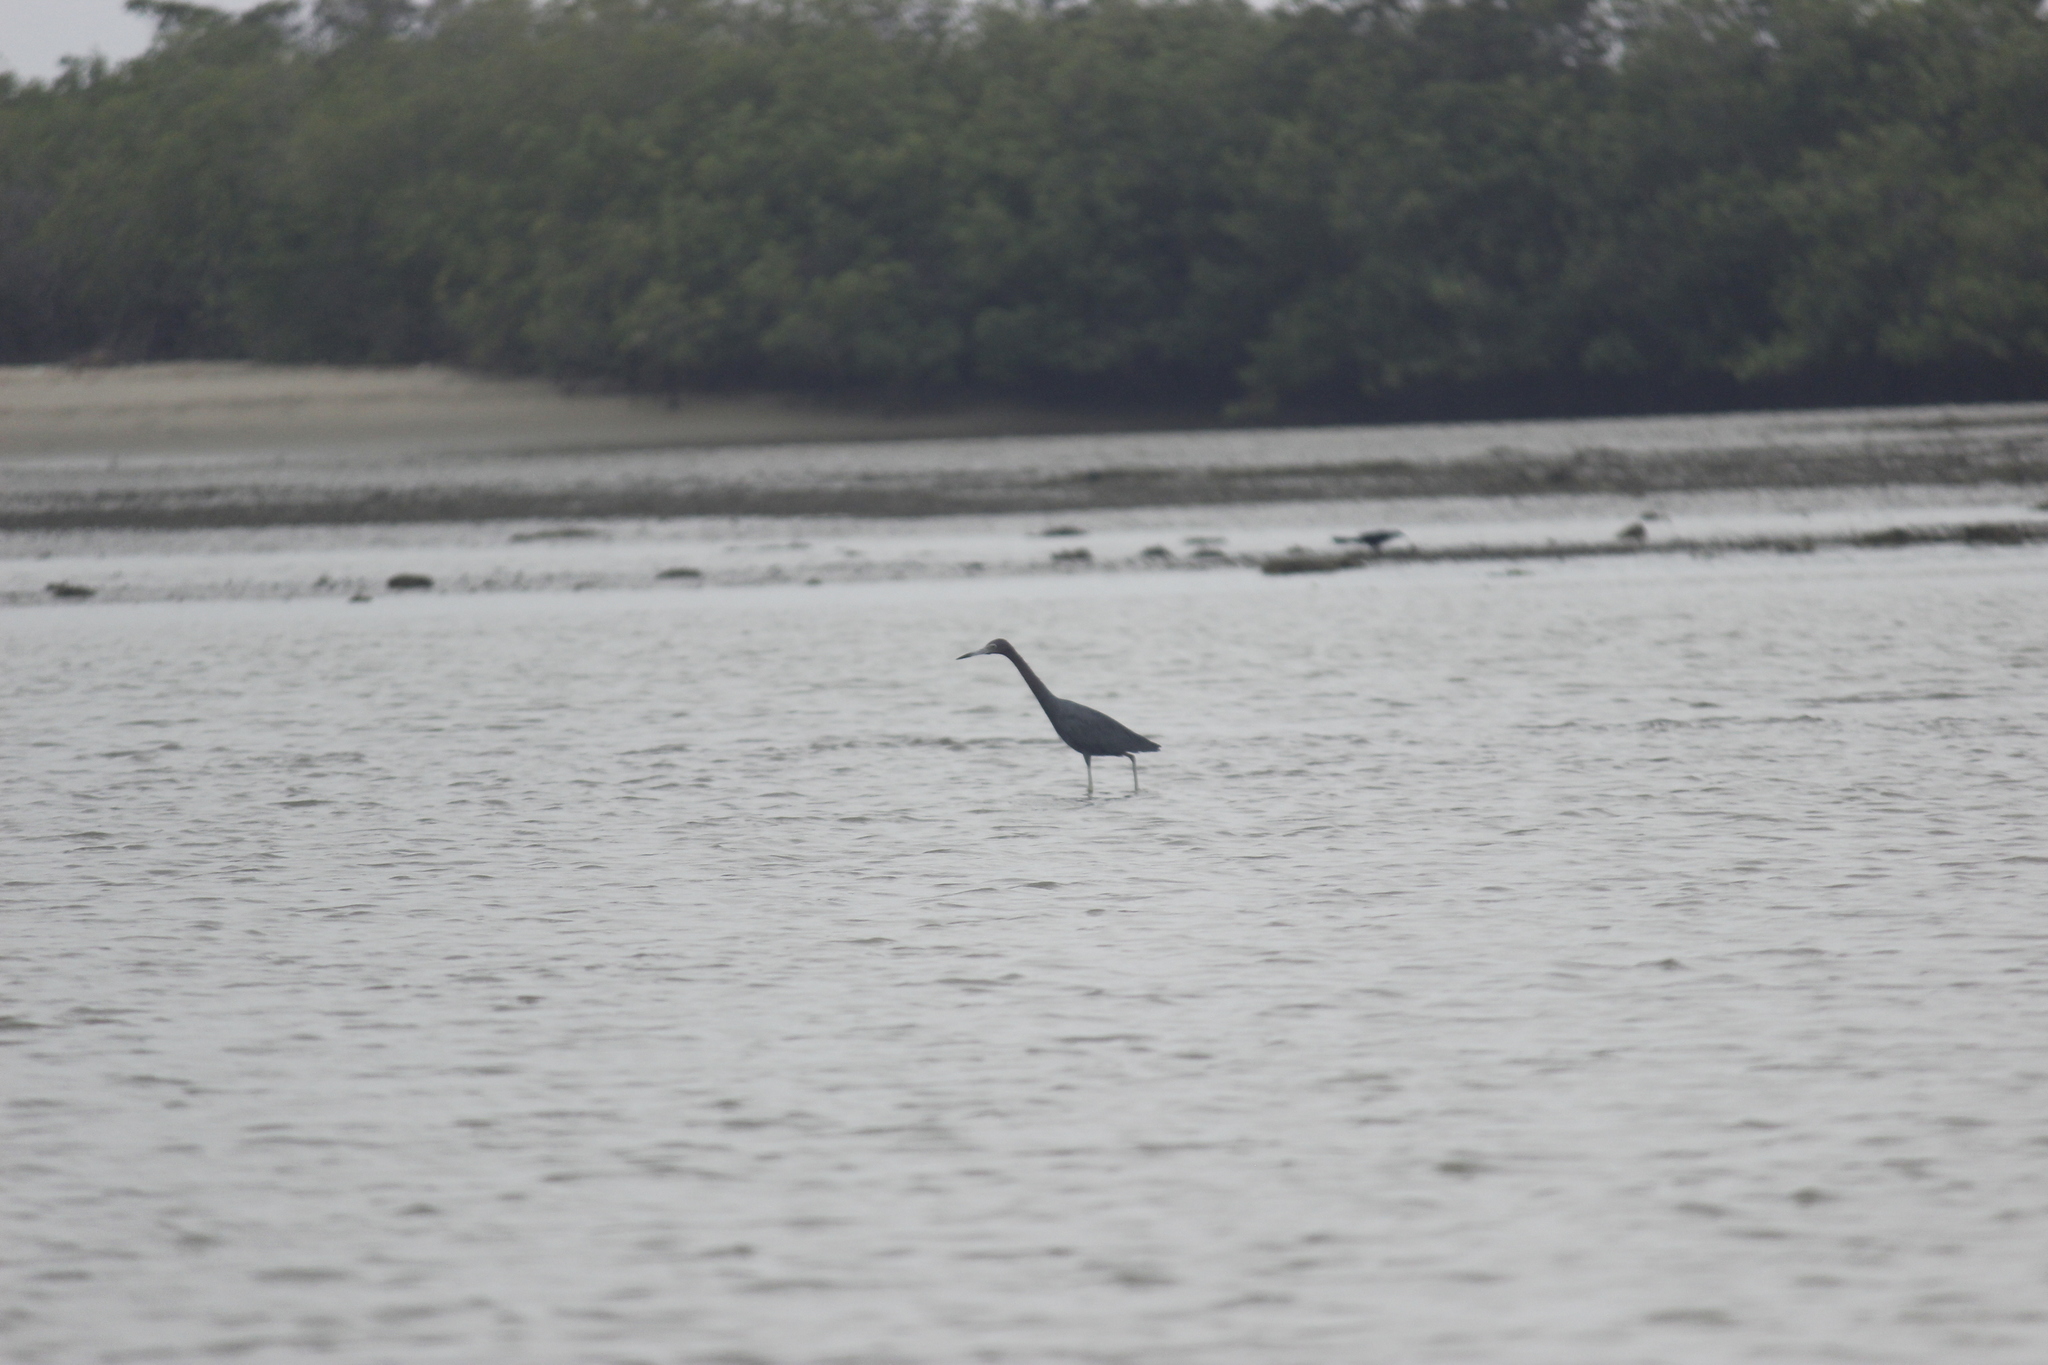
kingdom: Animalia
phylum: Chordata
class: Aves
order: Pelecaniformes
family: Ardeidae
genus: Egretta
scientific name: Egretta caerulea
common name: Little blue heron
